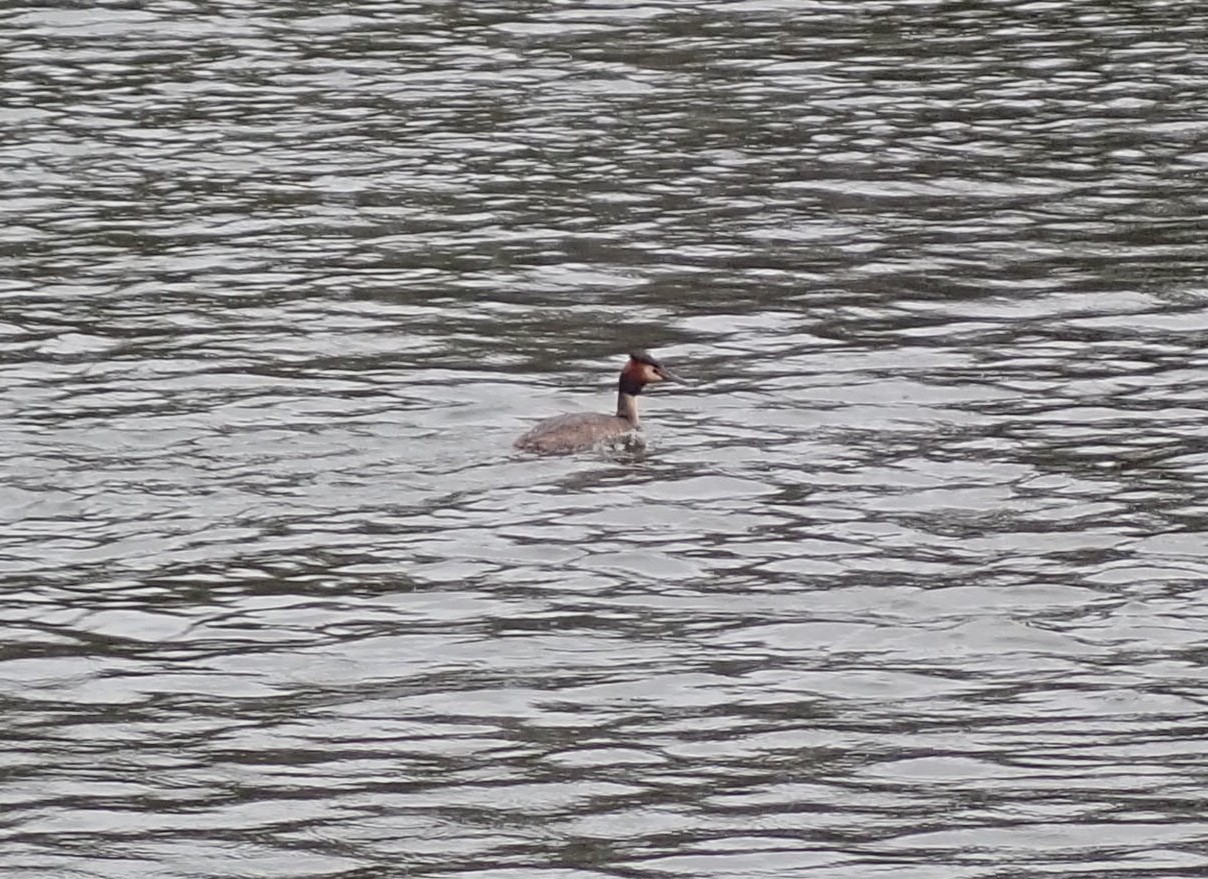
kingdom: Animalia
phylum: Chordata
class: Aves
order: Podicipediformes
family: Podicipedidae
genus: Podiceps
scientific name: Podiceps cristatus
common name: Great crested grebe
